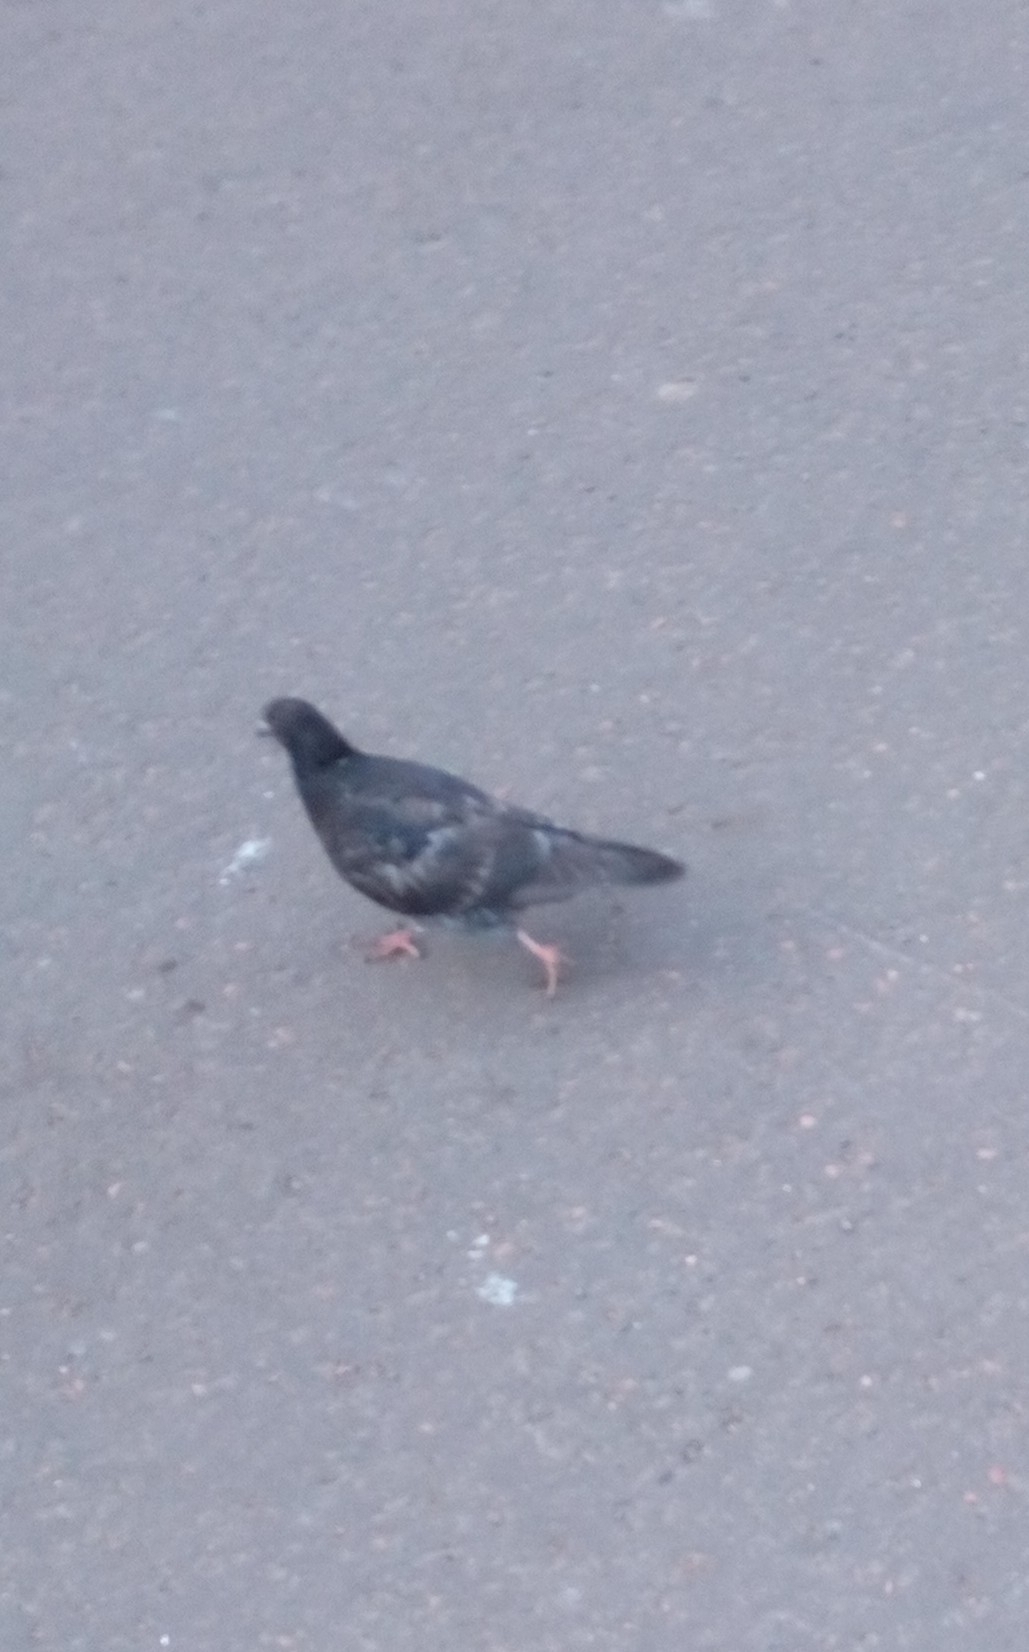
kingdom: Animalia
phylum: Chordata
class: Aves
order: Columbiformes
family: Columbidae
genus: Columba
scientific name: Columba livia
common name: Rock pigeon
